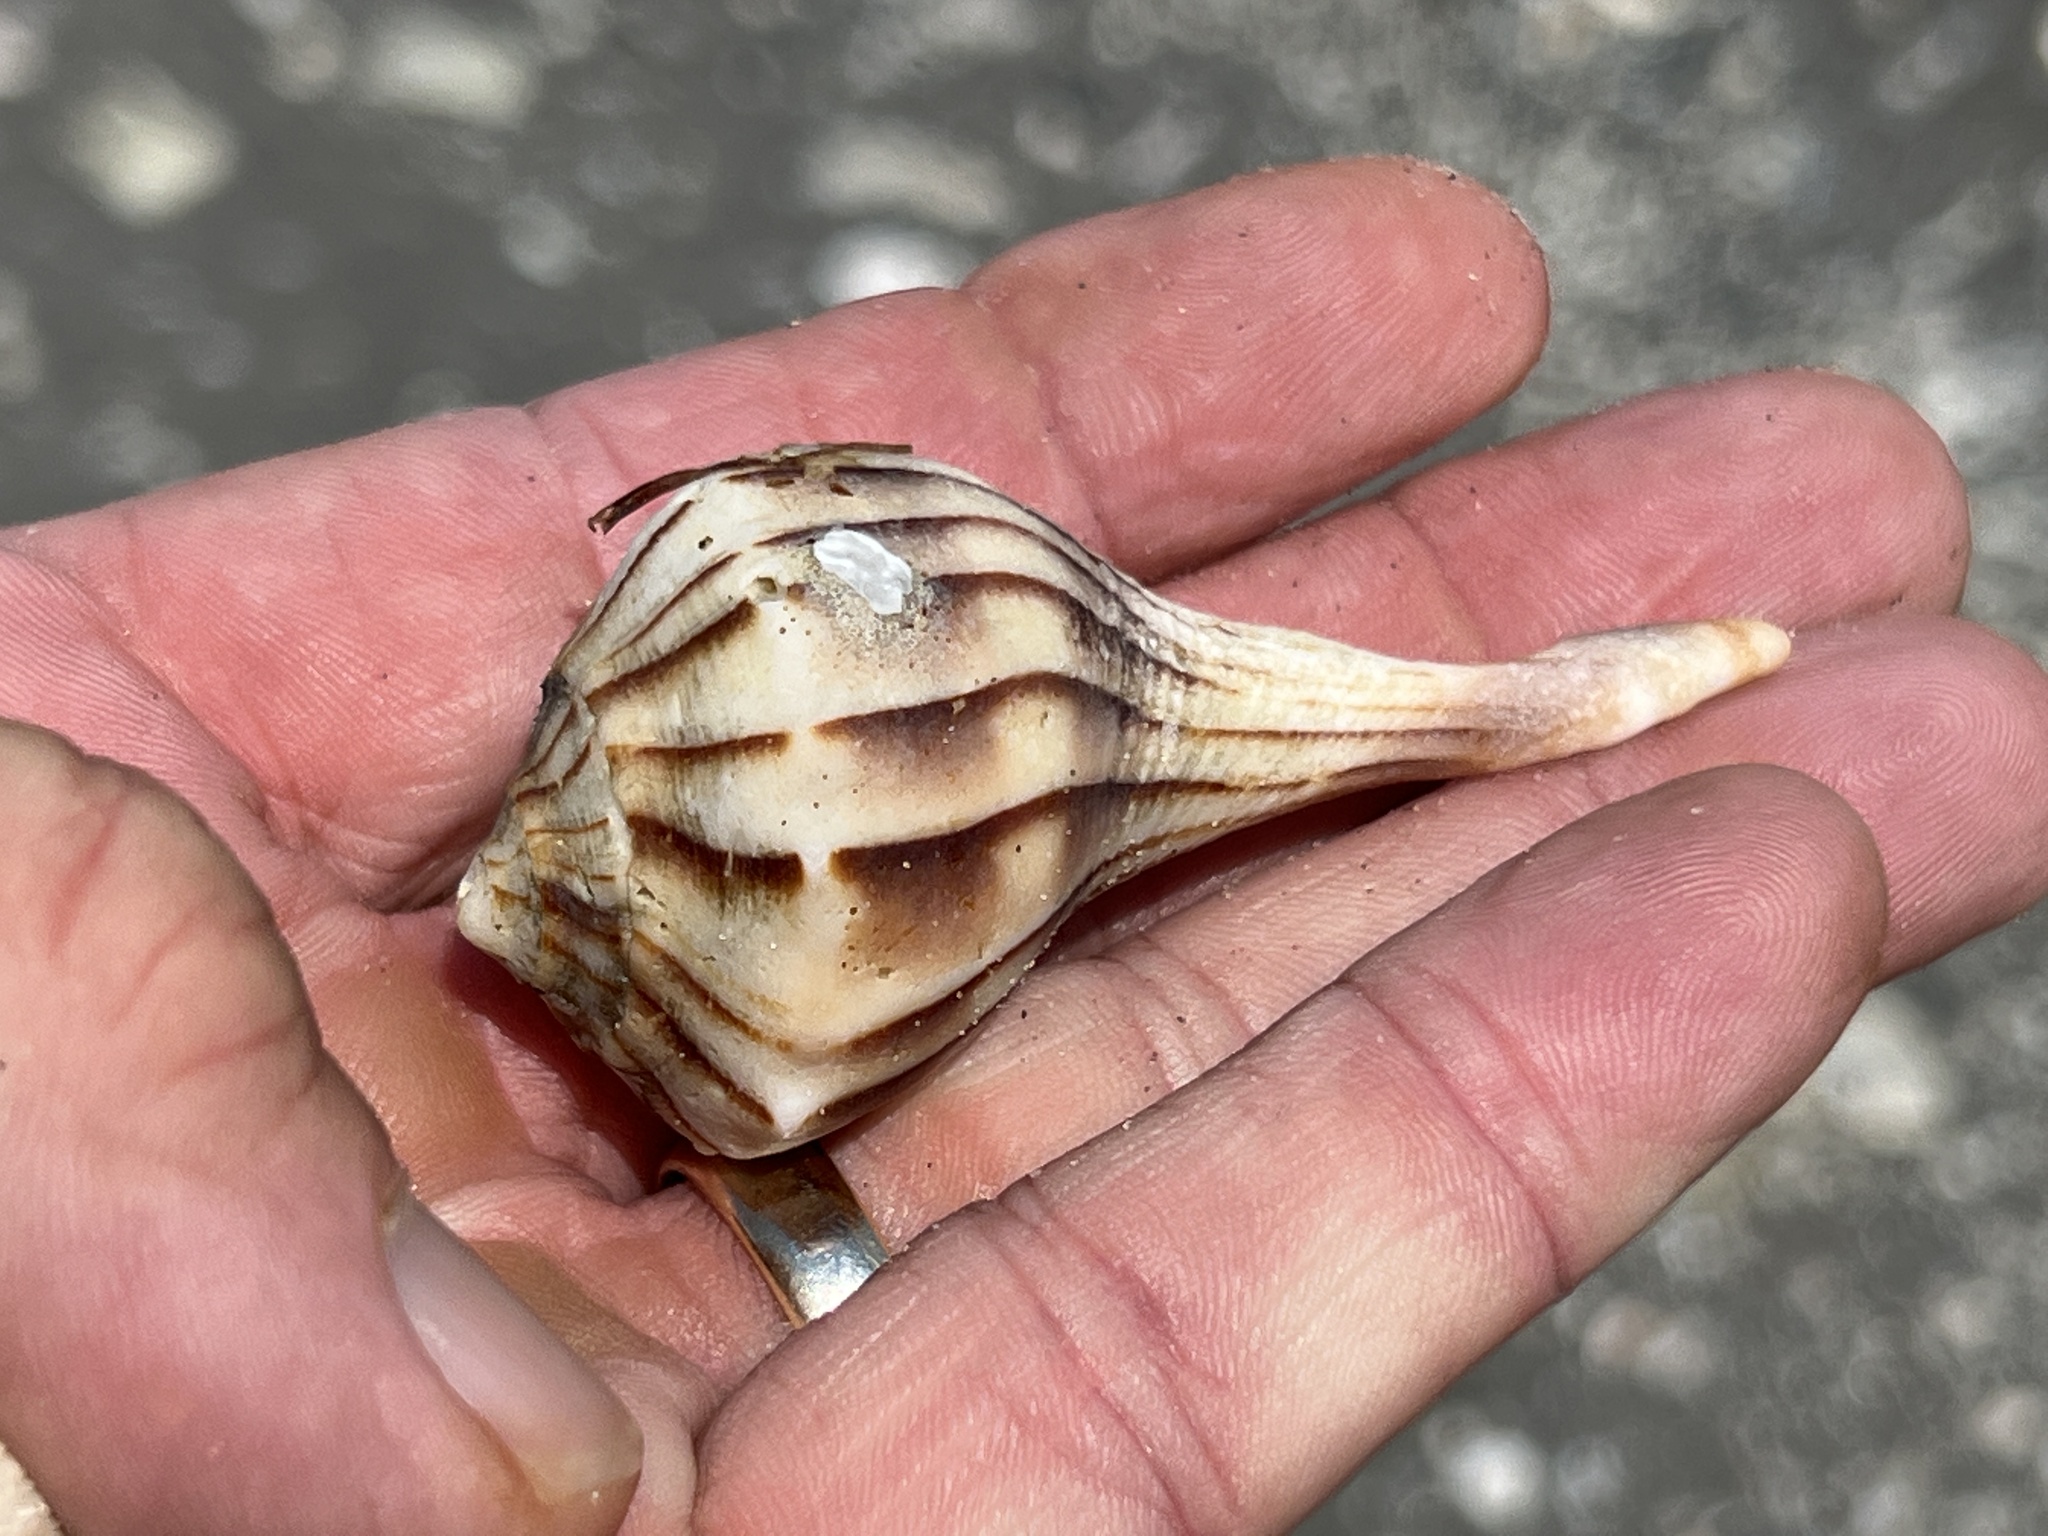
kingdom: Animalia
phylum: Mollusca
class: Gastropoda
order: Neogastropoda
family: Busyconidae
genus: Sinistrofulgur
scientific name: Sinistrofulgur pulleyi
